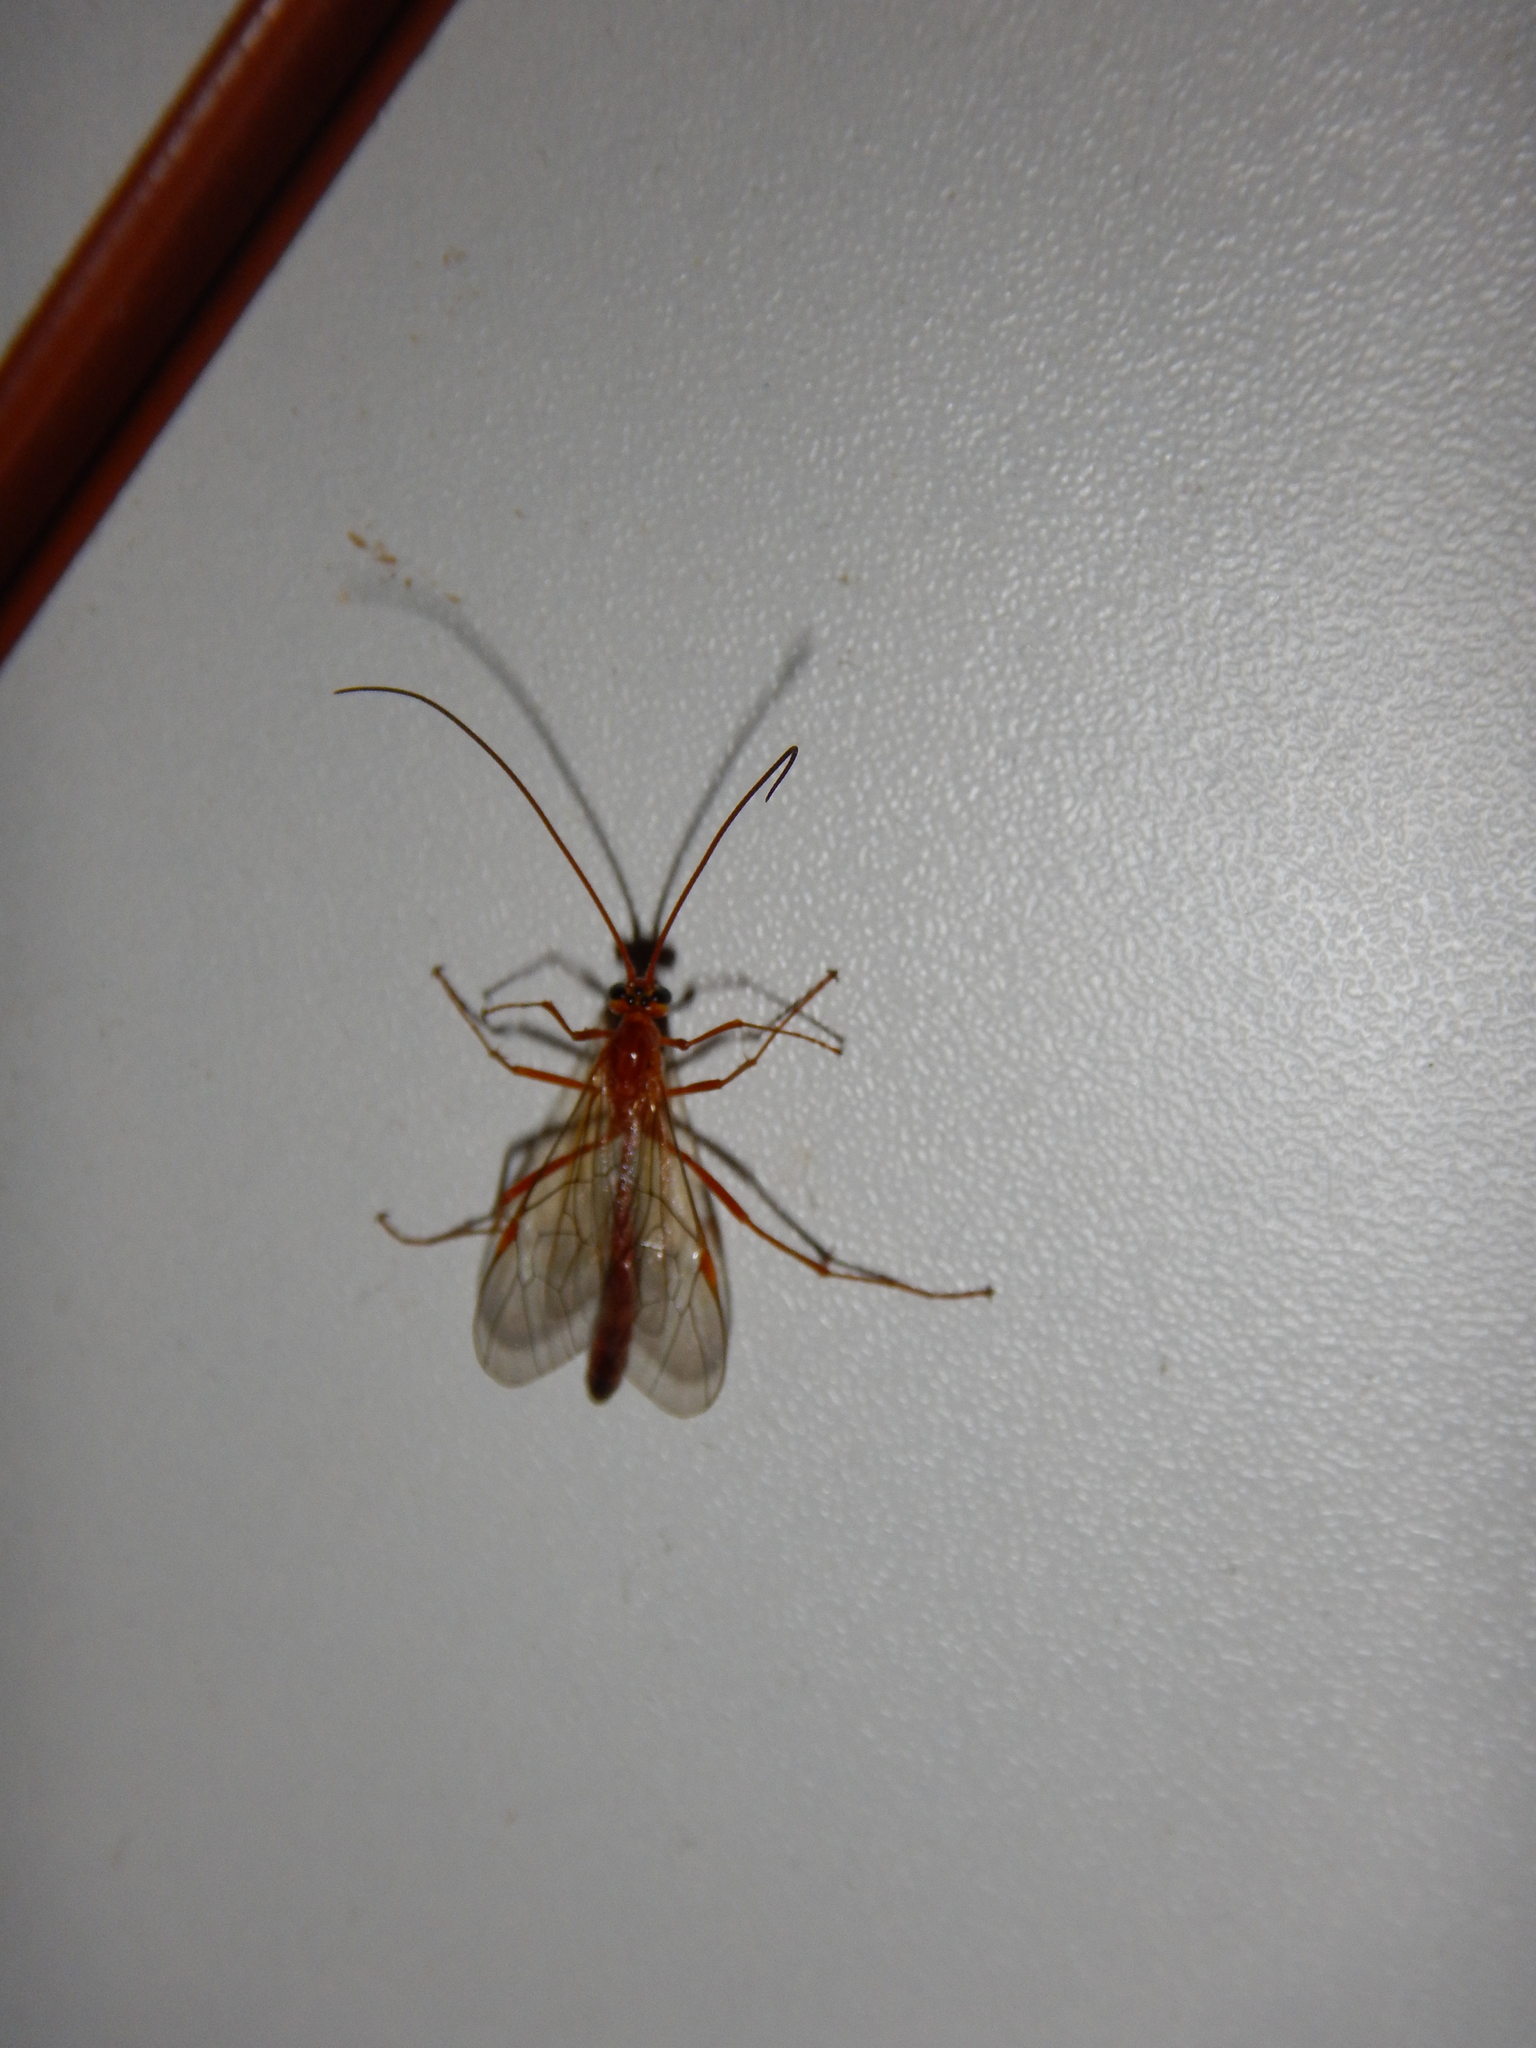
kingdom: Animalia
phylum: Arthropoda
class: Insecta
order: Hymenoptera
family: Ichneumonidae
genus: Ophion
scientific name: Ophion
